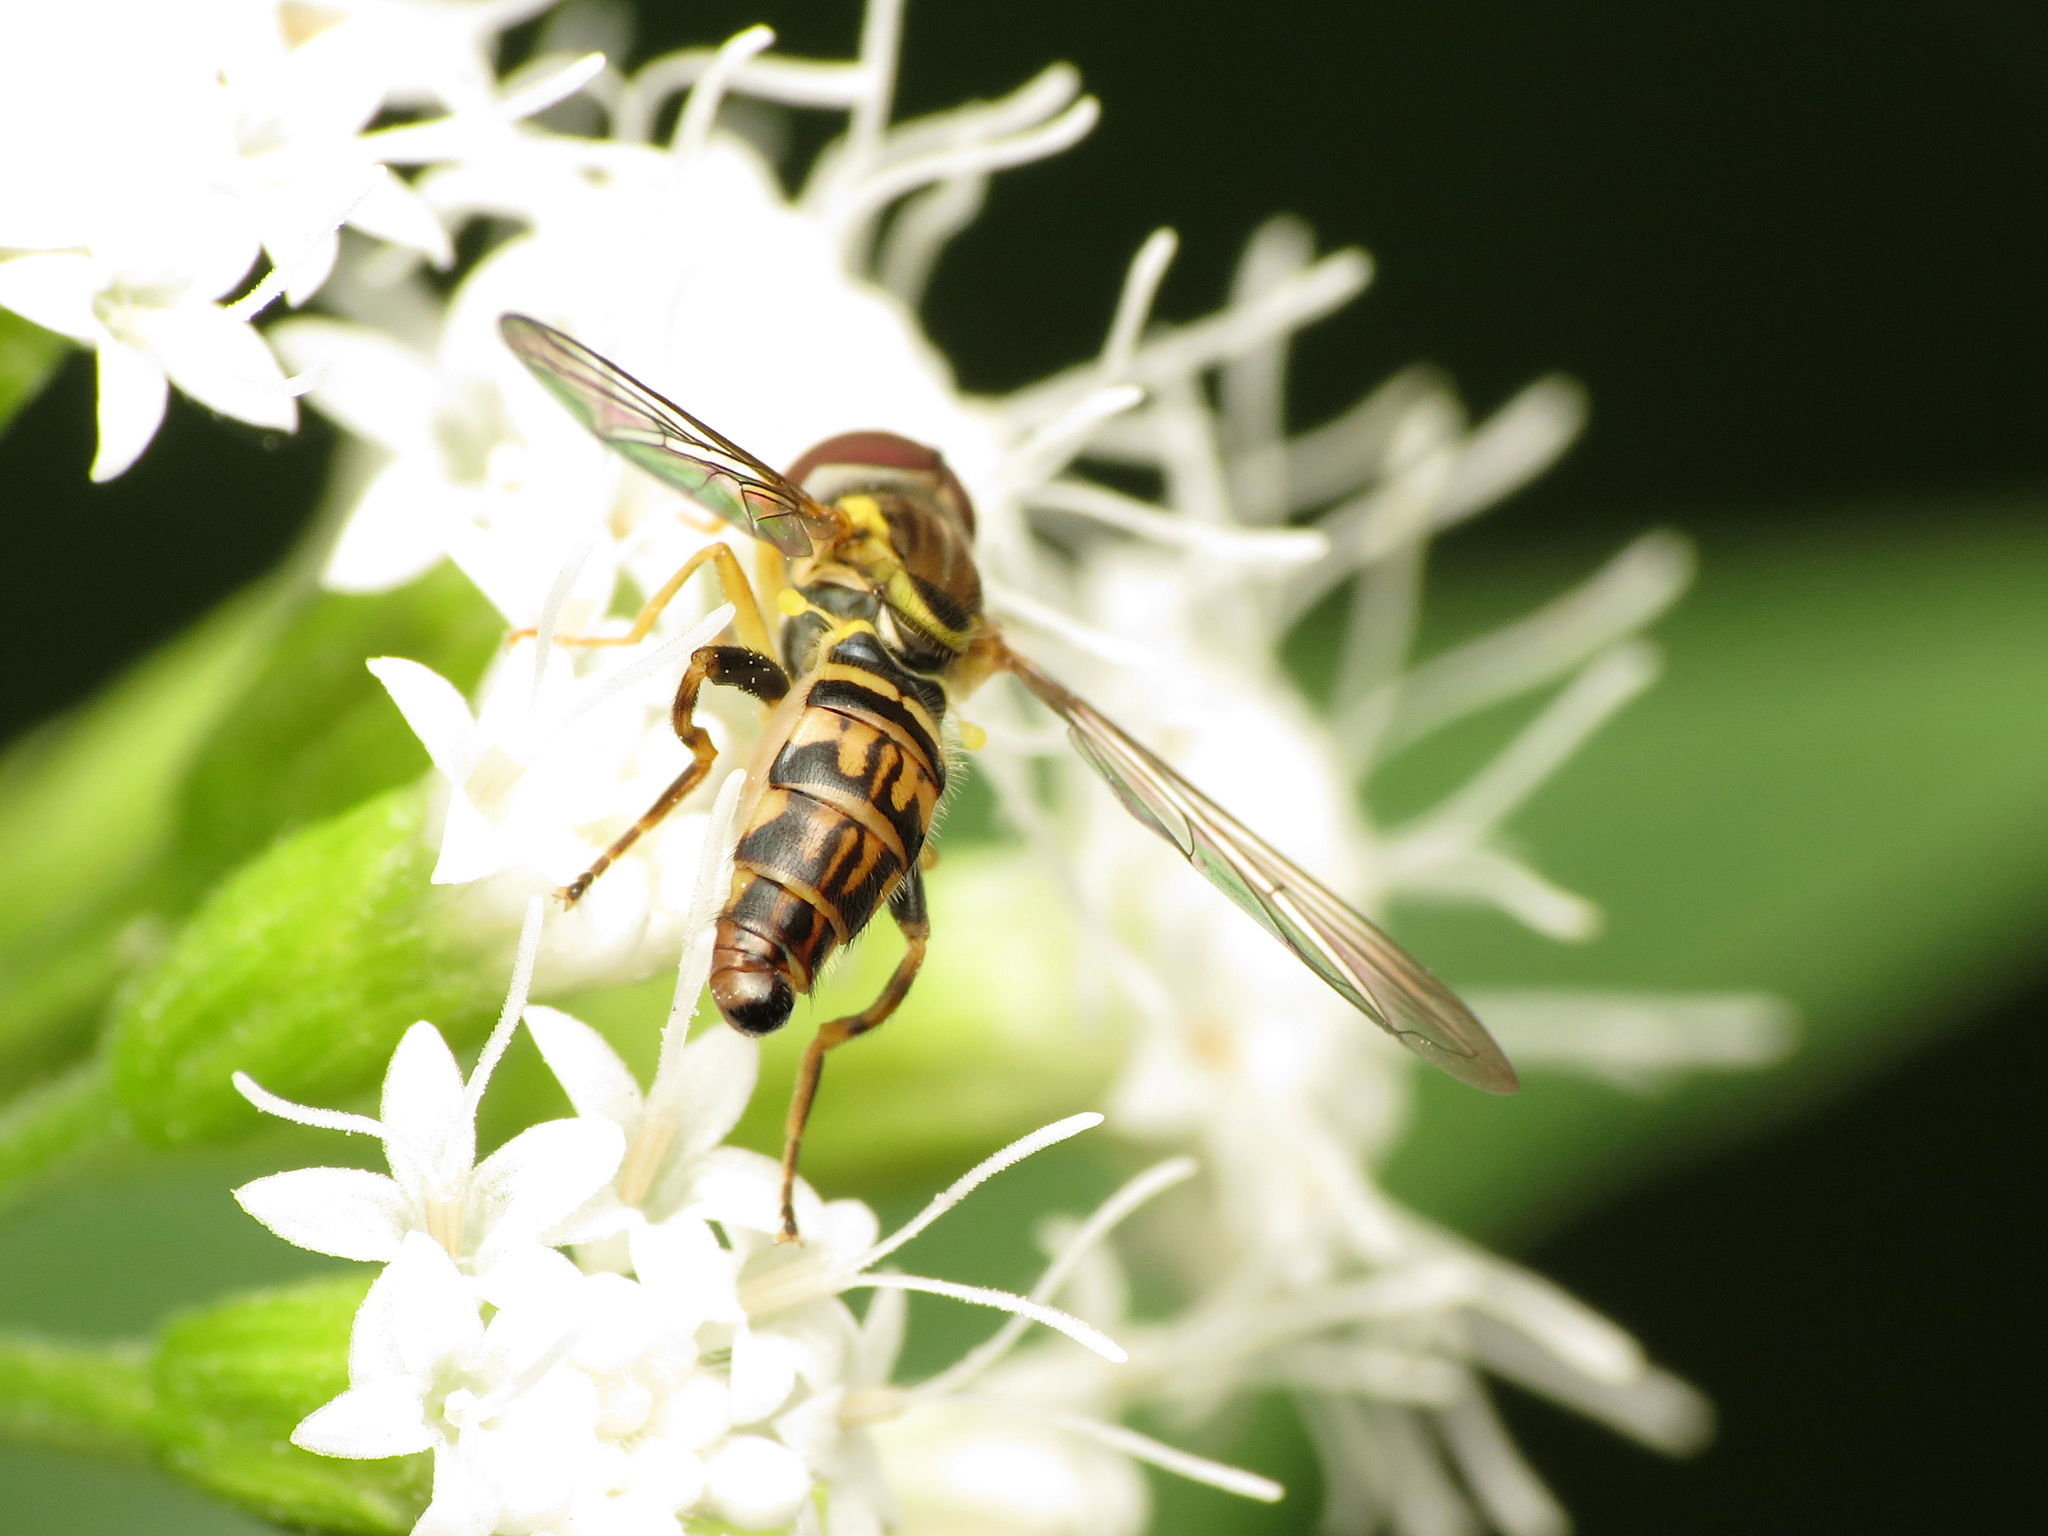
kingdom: Animalia
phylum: Arthropoda
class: Insecta
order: Diptera
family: Syrphidae
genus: Toxomerus
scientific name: Toxomerus geminatus
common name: Eastern calligrapher
